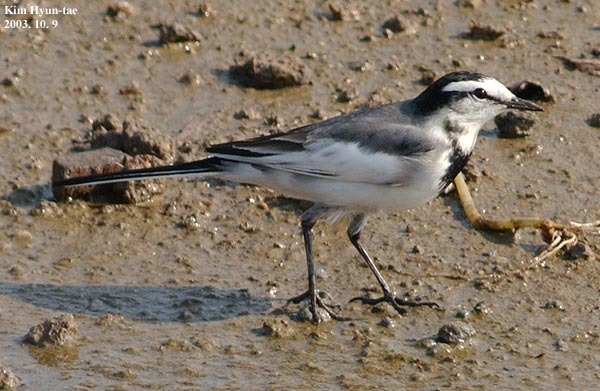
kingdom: Animalia
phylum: Chordata
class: Aves
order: Passeriformes
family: Motacillidae
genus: Motacilla
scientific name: Motacilla alba
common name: White wagtail
